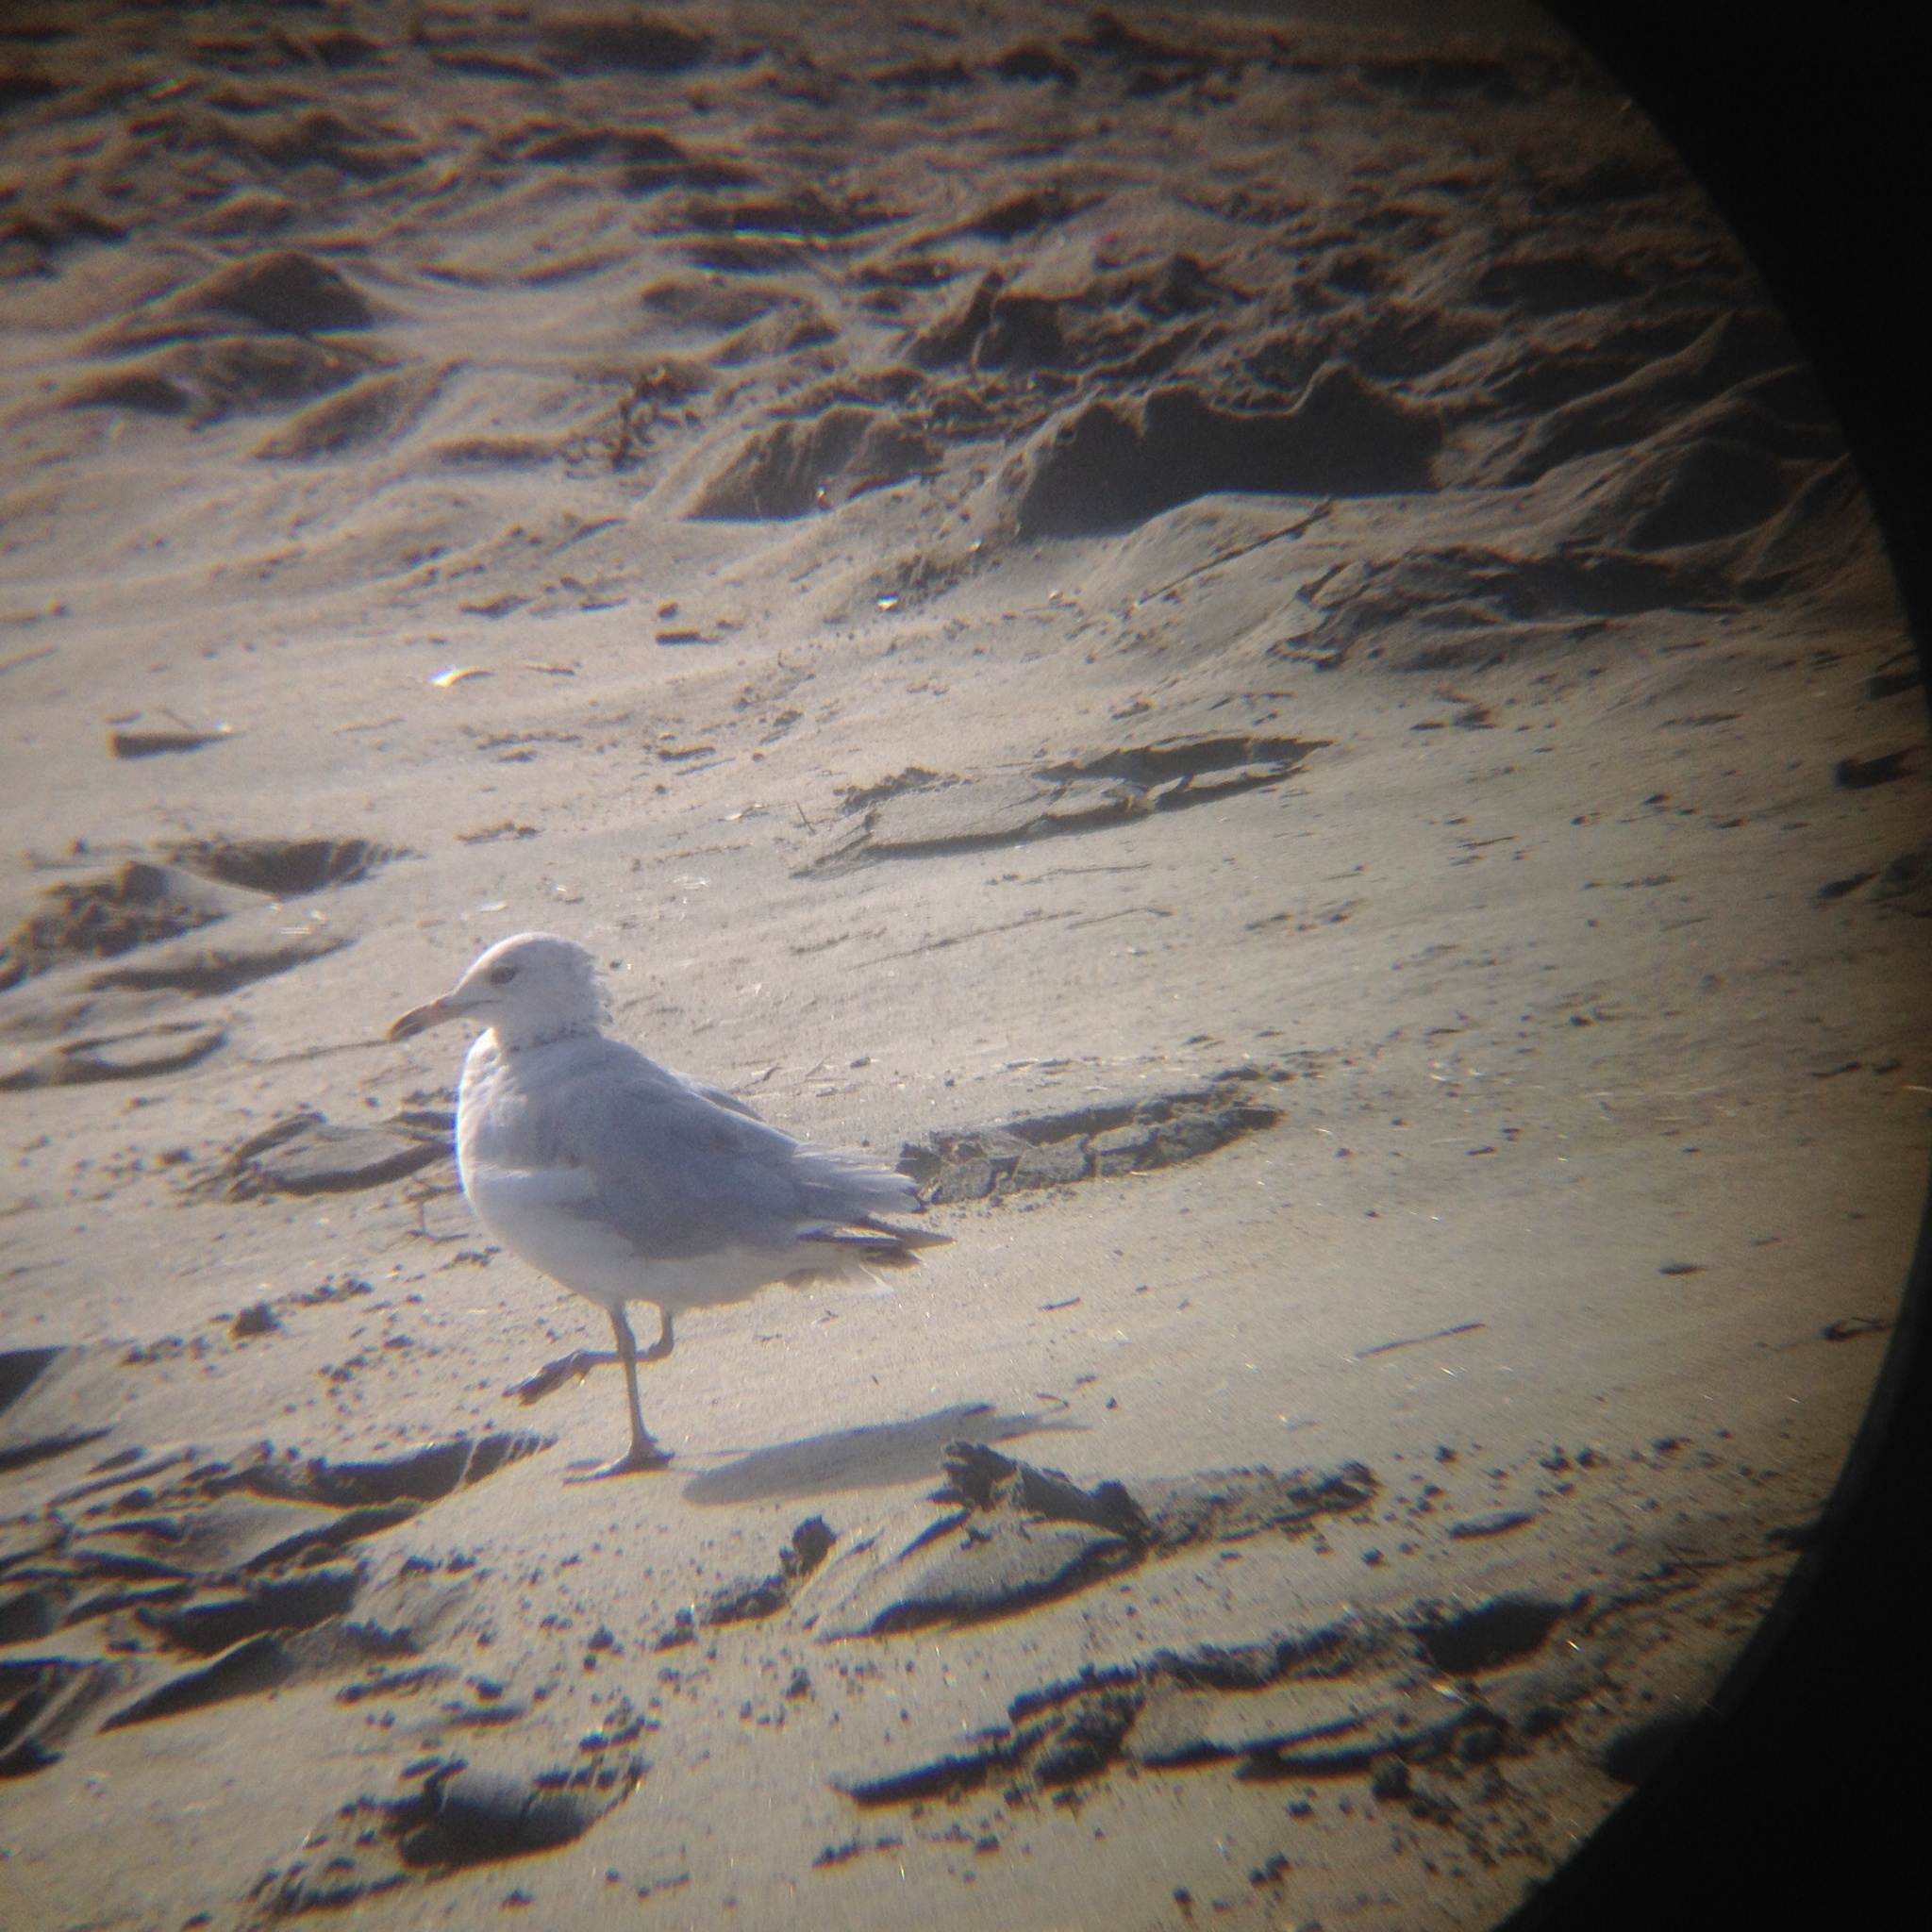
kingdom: Animalia
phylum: Chordata
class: Aves
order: Charadriiformes
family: Laridae
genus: Larus
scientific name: Larus delawarensis
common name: Ring-billed gull
